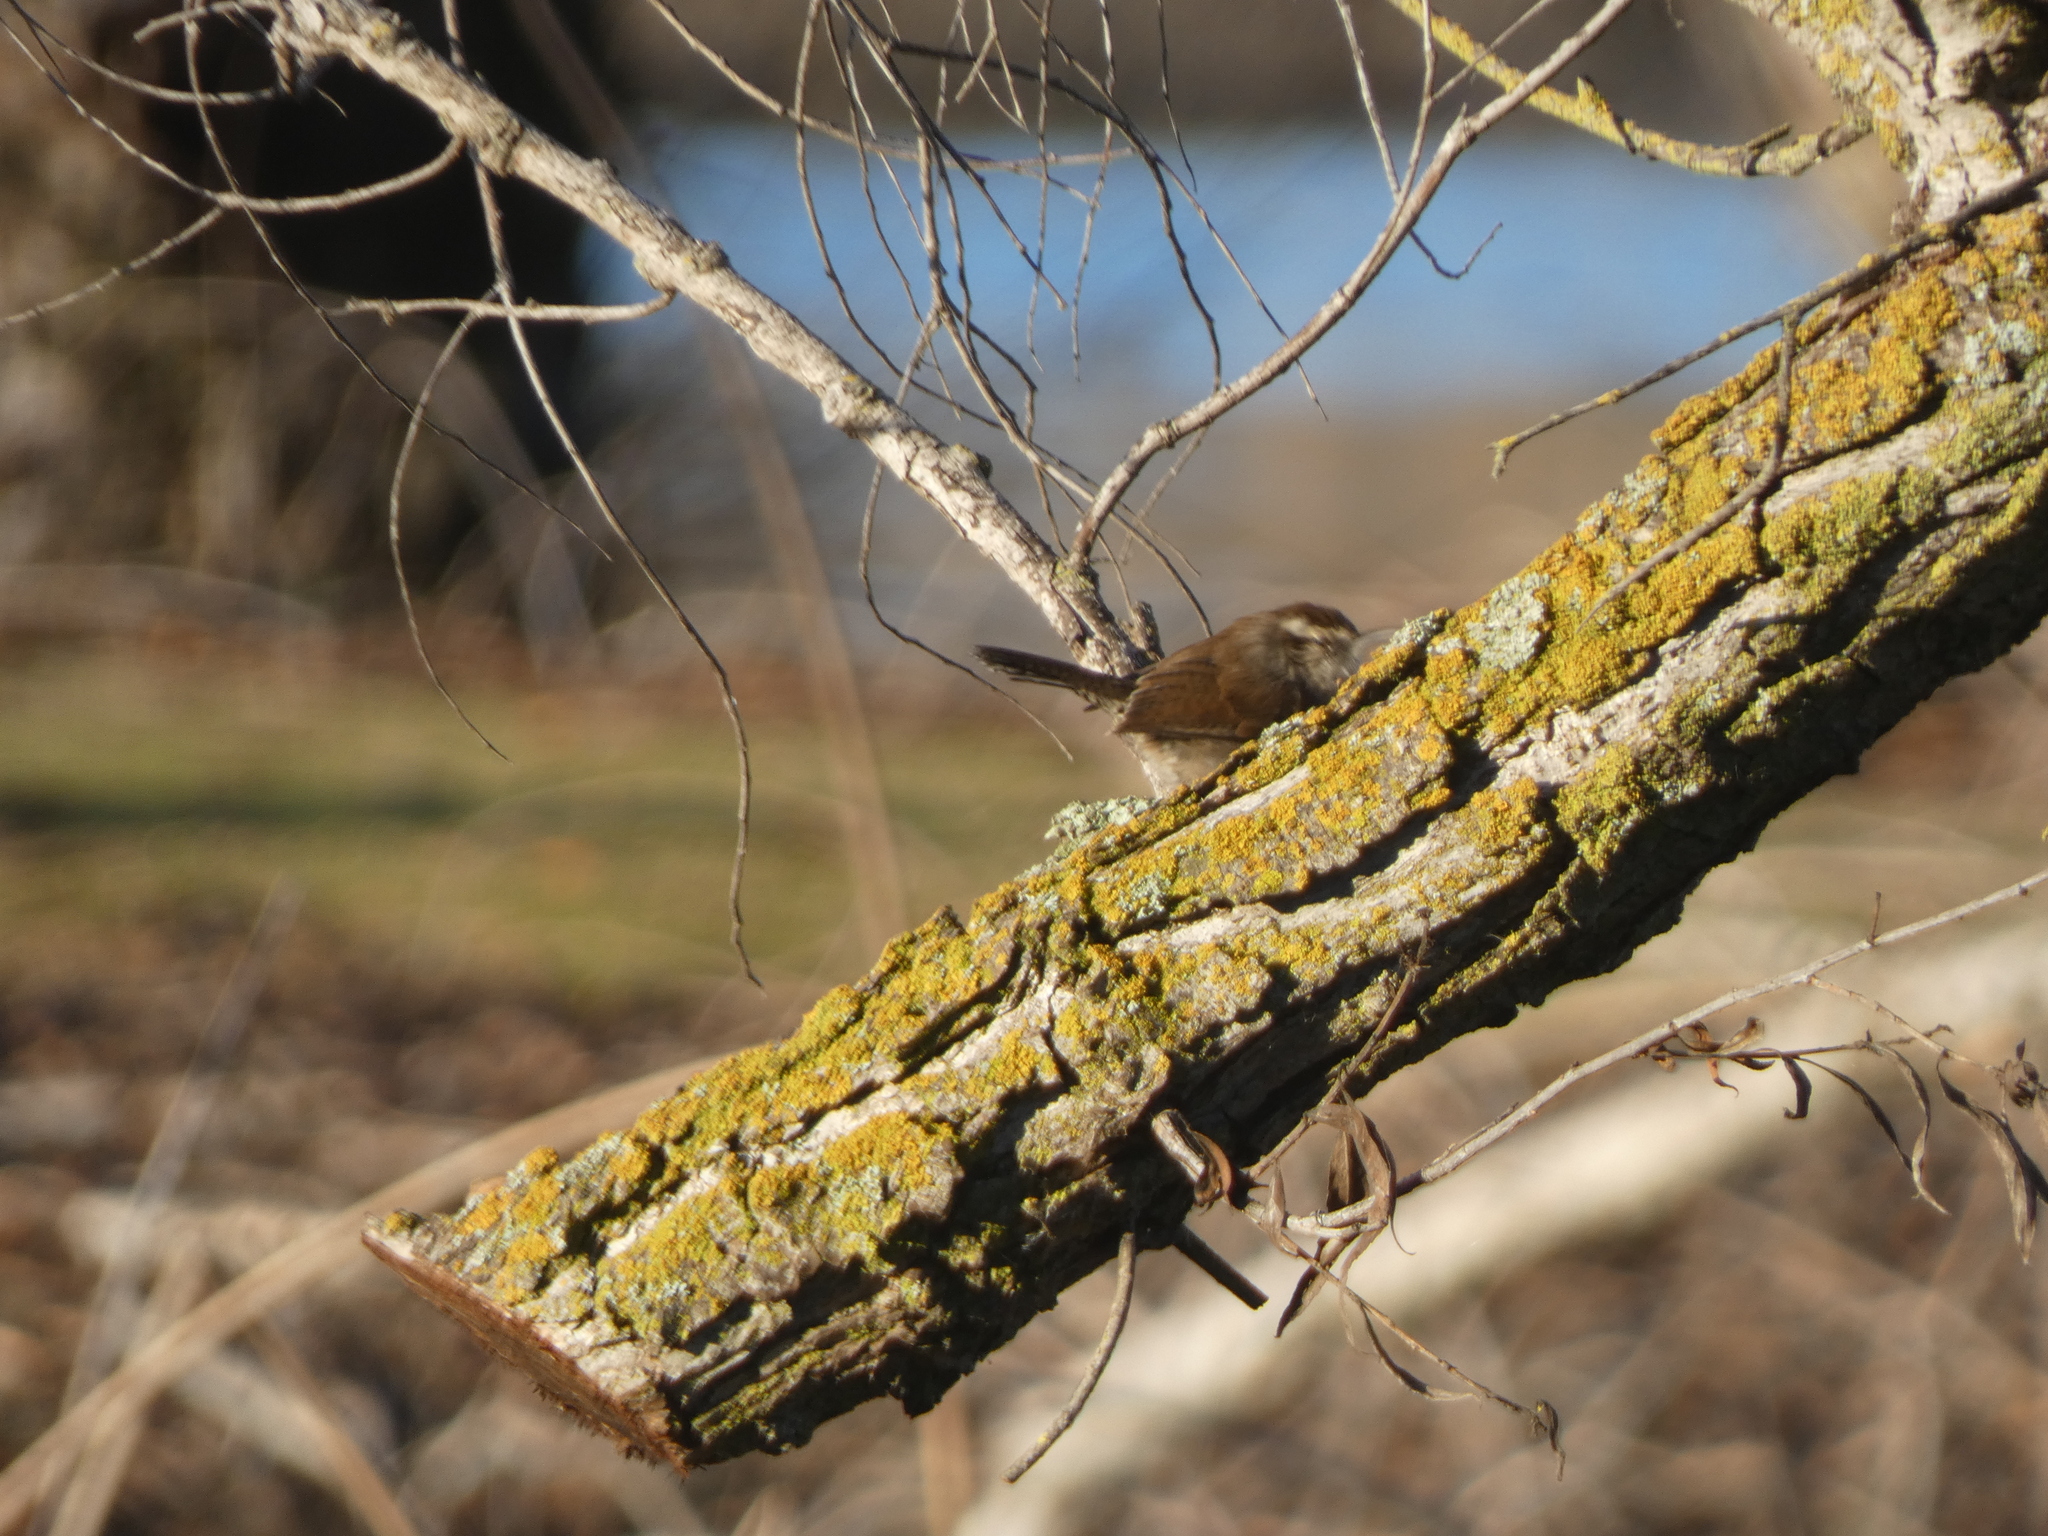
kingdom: Animalia
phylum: Chordata
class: Aves
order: Passeriformes
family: Troglodytidae
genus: Thryomanes
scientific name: Thryomanes bewickii
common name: Bewick's wren
